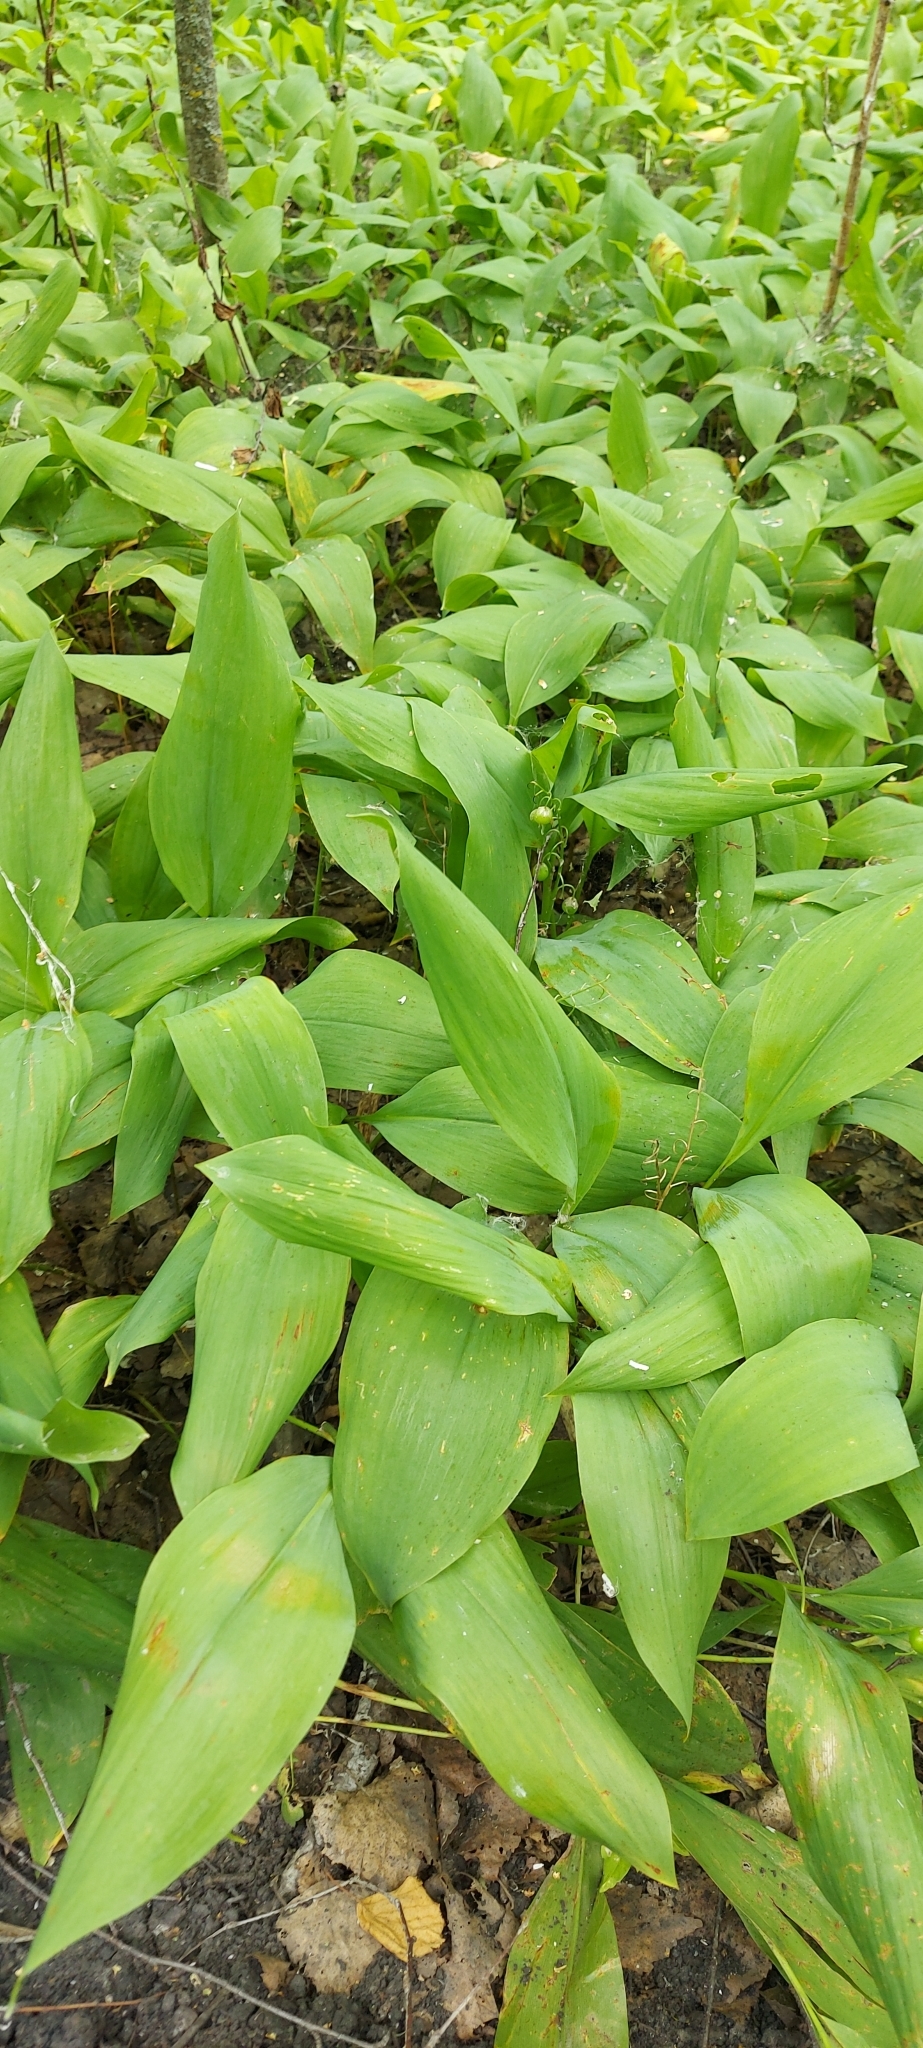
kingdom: Plantae
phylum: Tracheophyta
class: Liliopsida
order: Asparagales
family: Asparagaceae
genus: Convallaria
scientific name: Convallaria majalis
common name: Lily-of-the-valley
